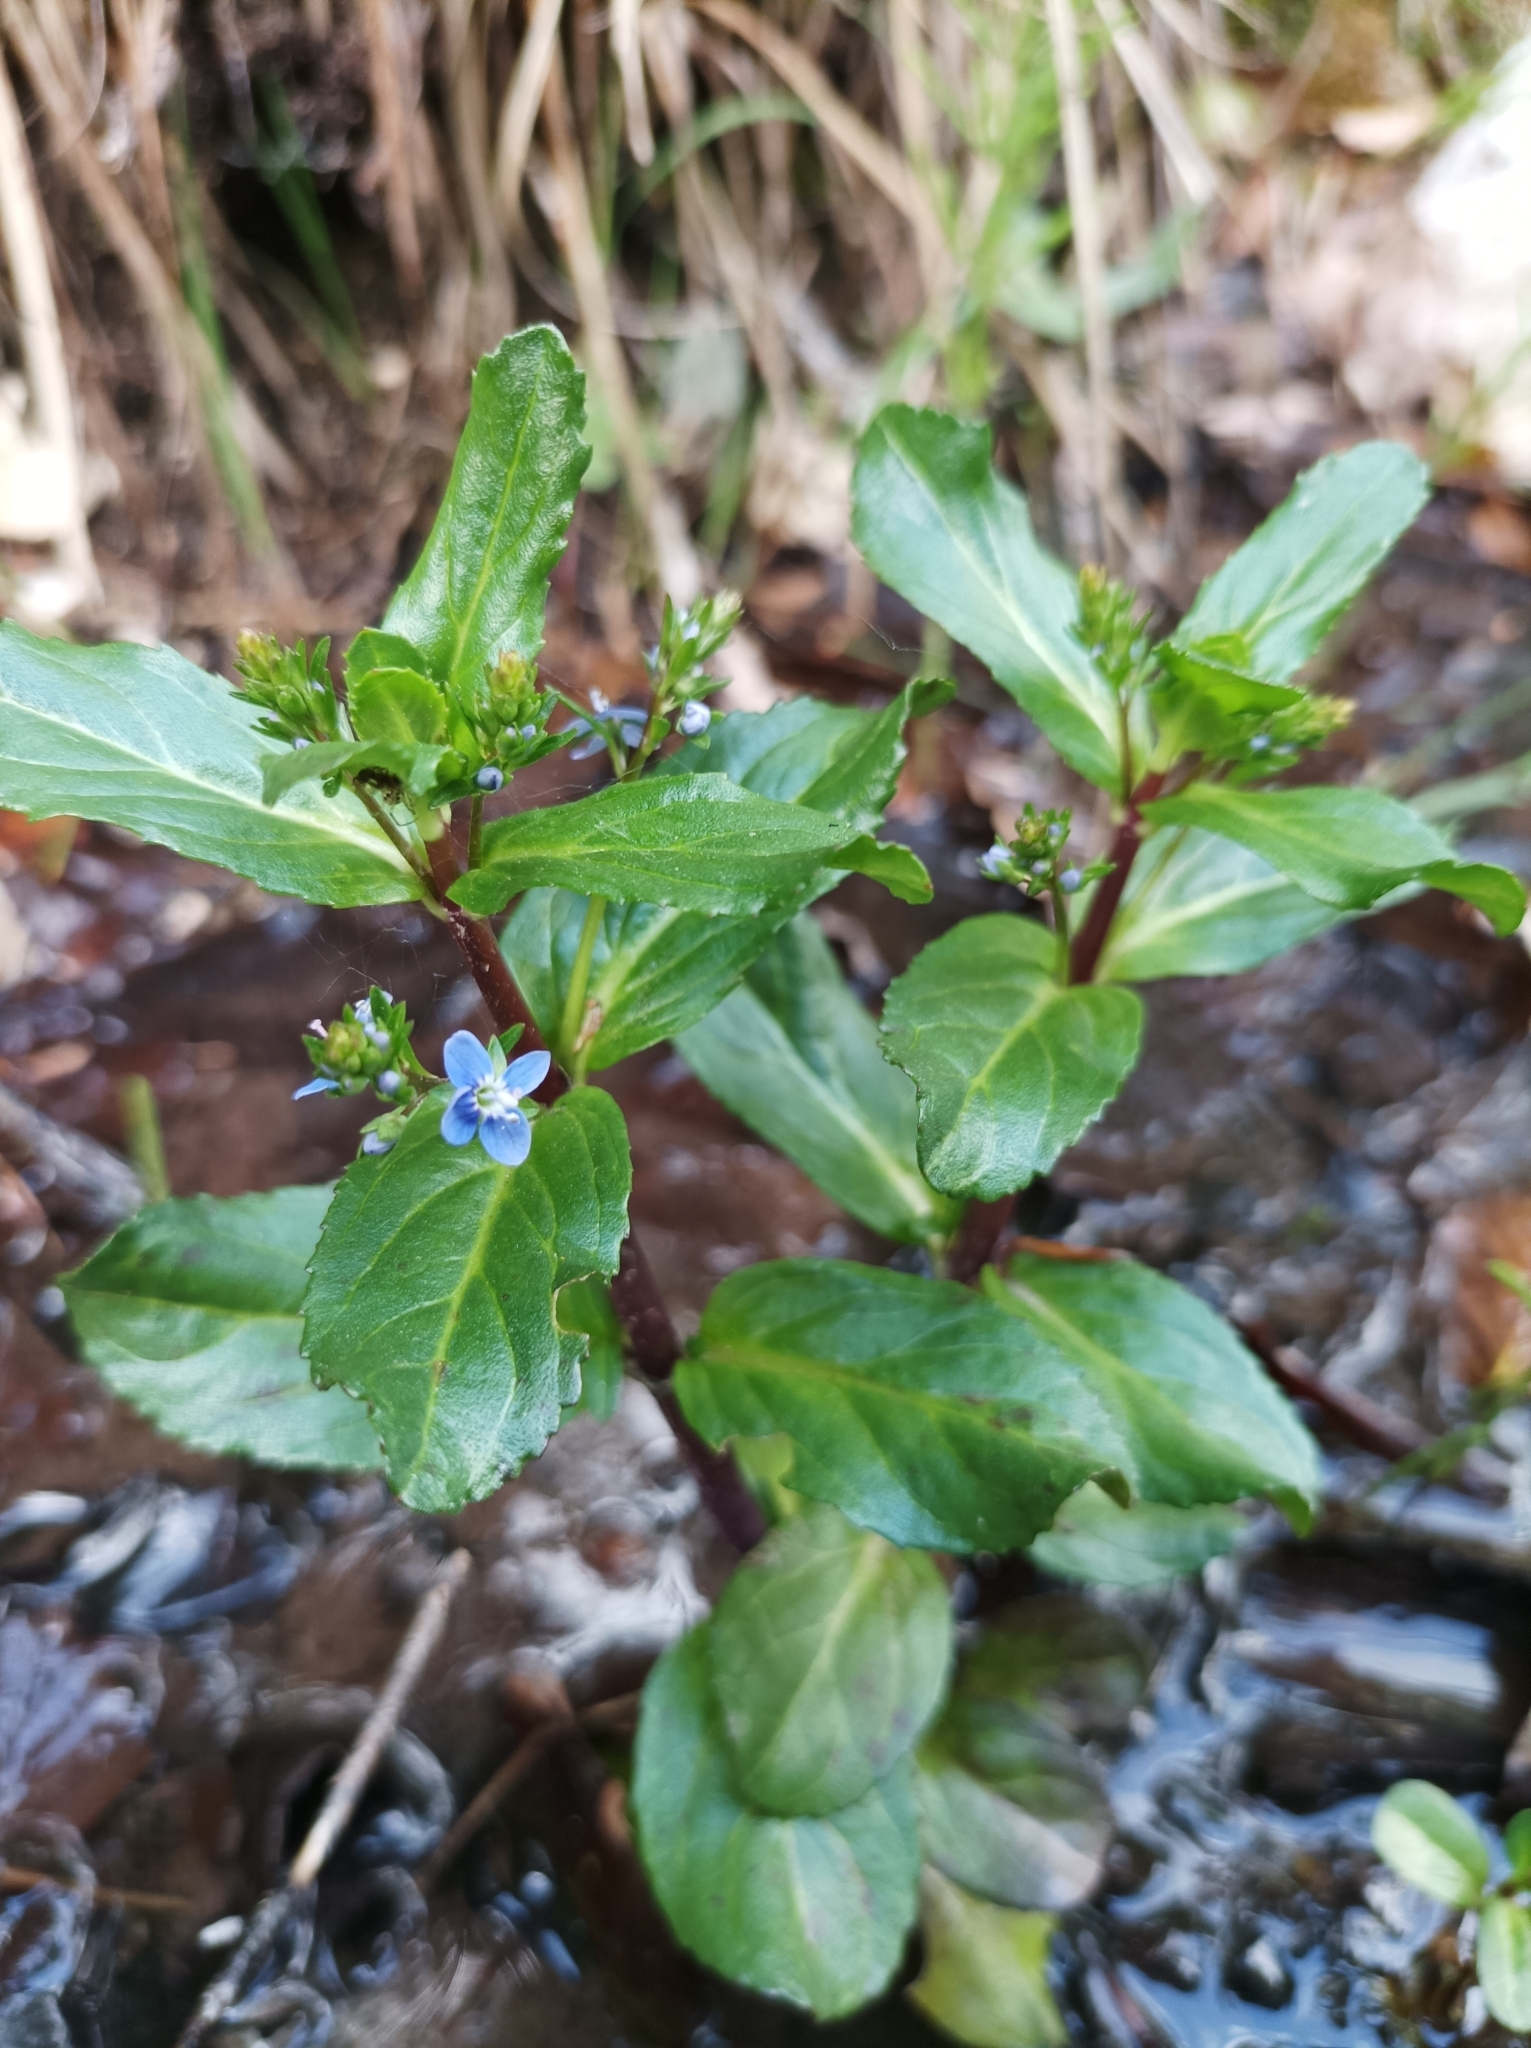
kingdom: Plantae
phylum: Tracheophyta
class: Magnoliopsida
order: Lamiales
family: Plantaginaceae
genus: Veronica
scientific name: Veronica beccabunga
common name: Brooklime
